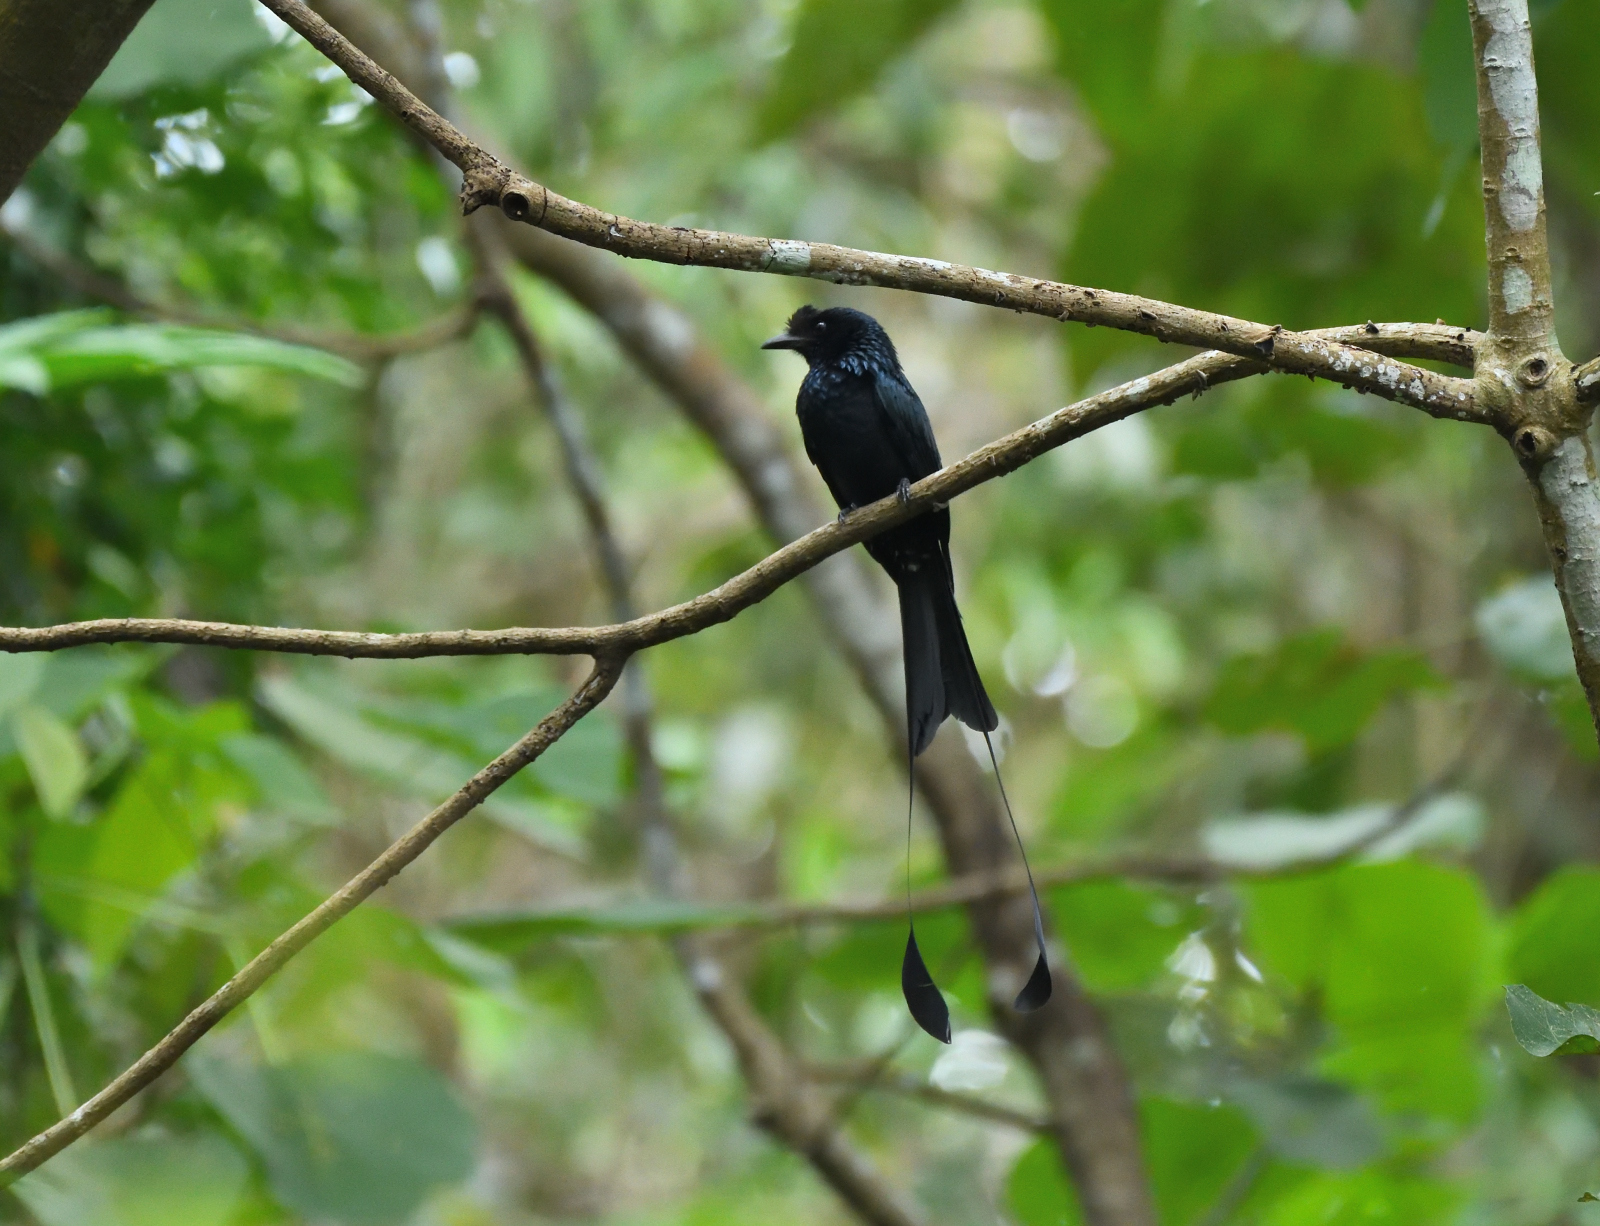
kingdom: Animalia
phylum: Chordata
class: Aves
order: Passeriformes
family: Dicruridae
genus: Dicrurus
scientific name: Dicrurus paradiseus
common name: Greater racket-tailed drongo
